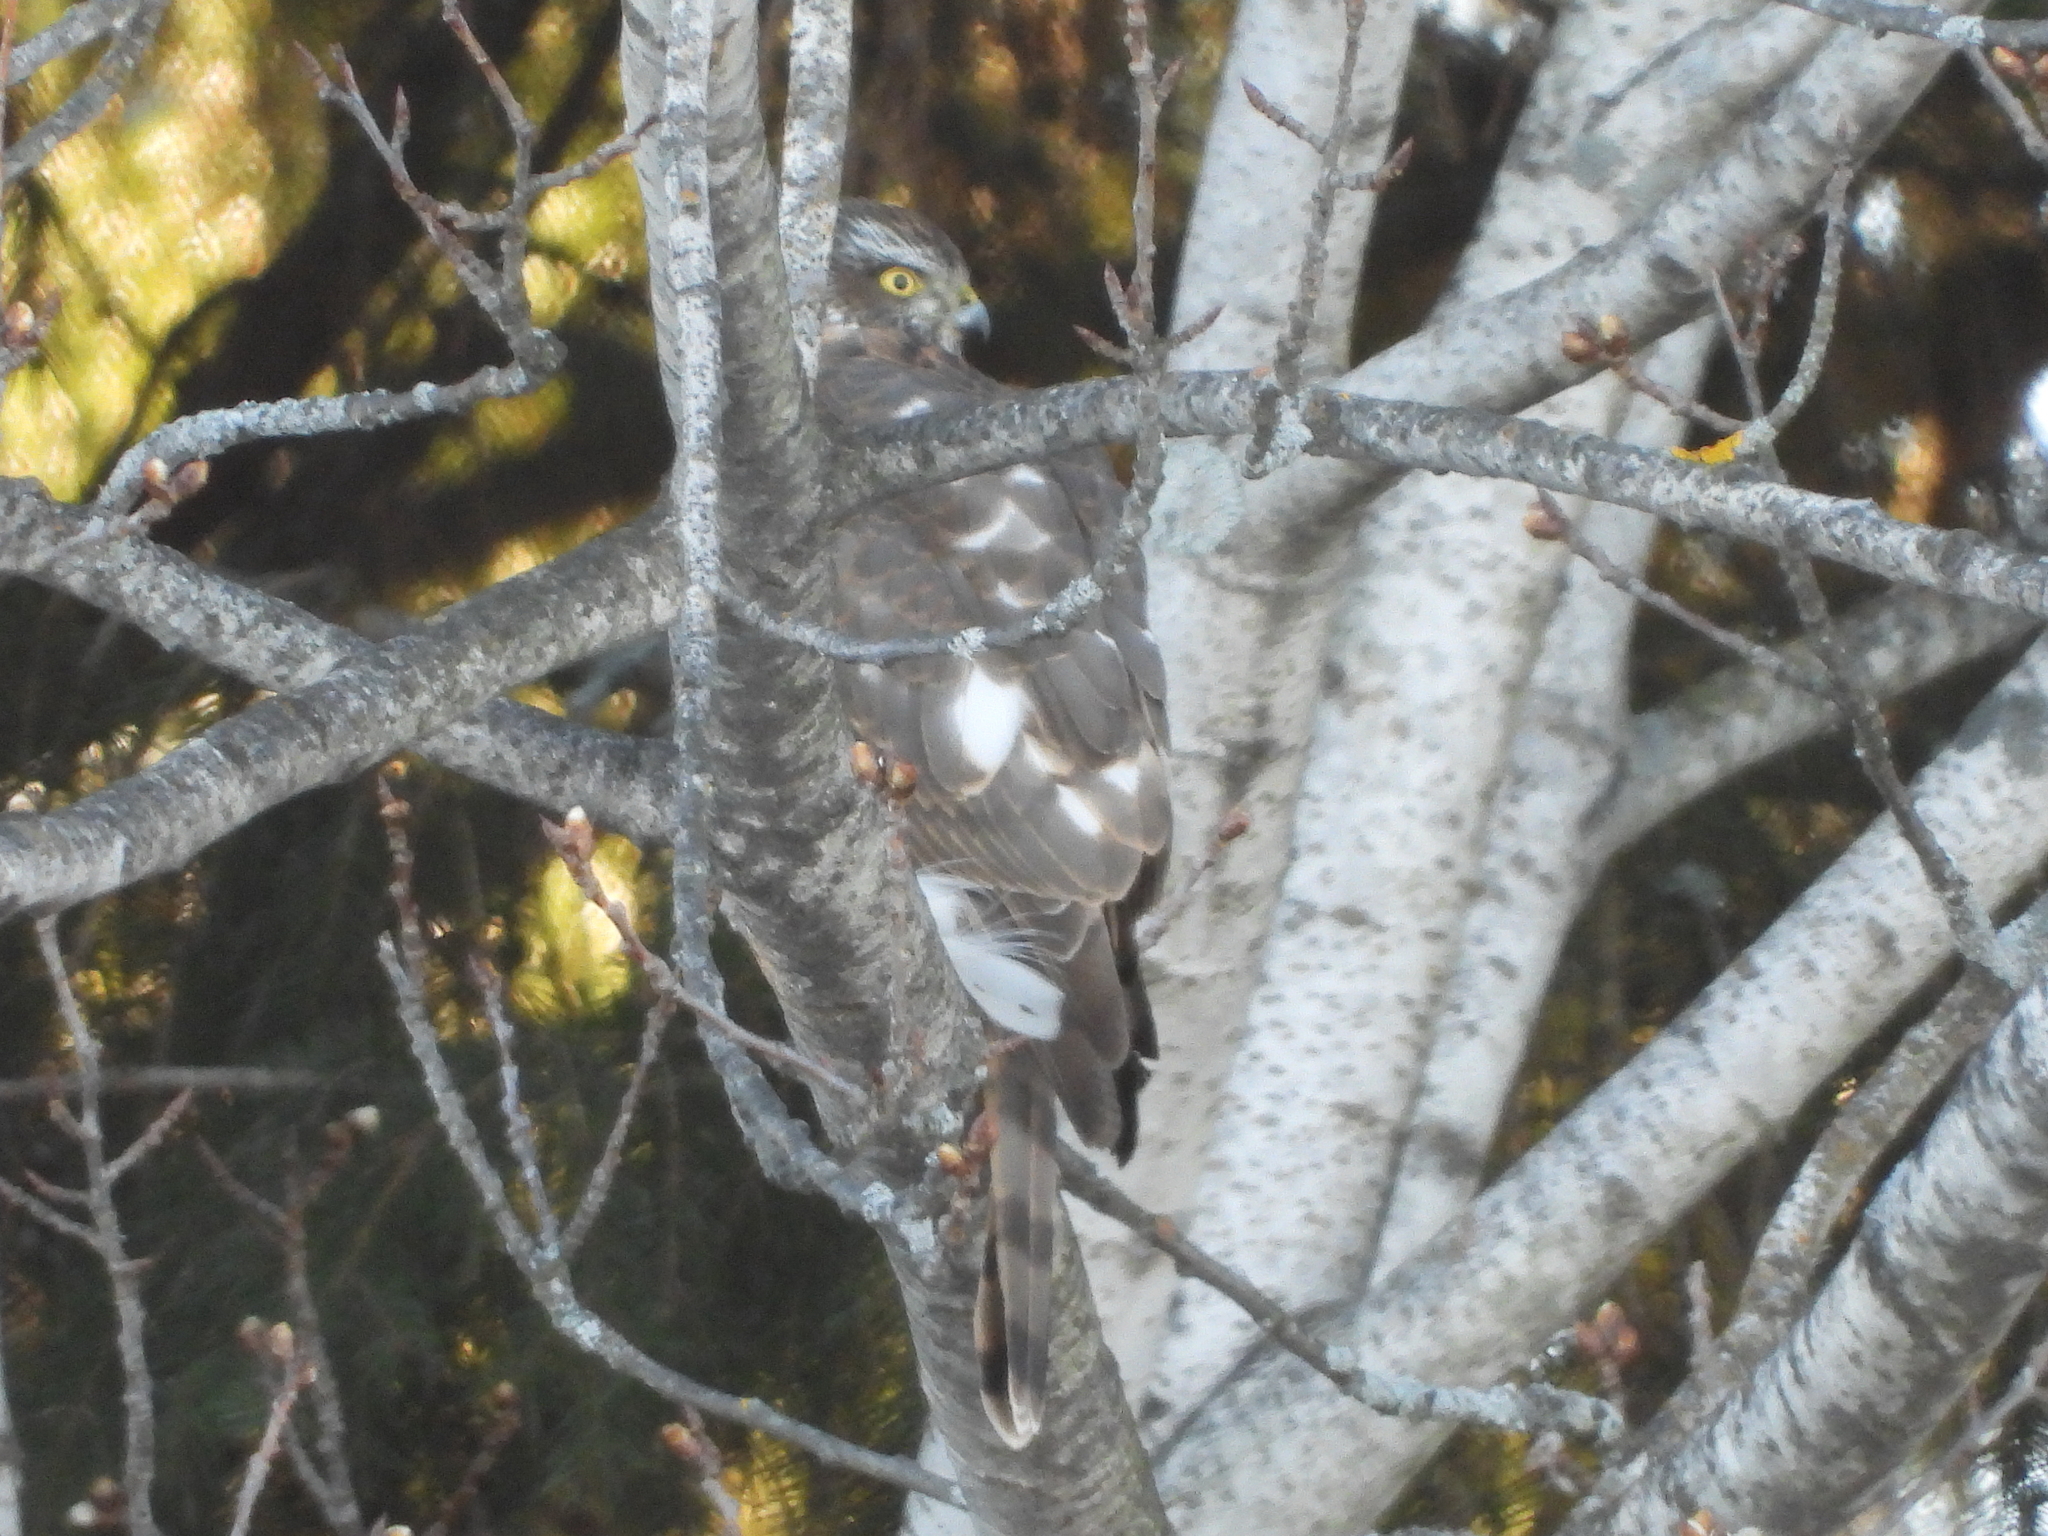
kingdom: Animalia
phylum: Chordata
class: Aves
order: Accipitriformes
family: Accipitridae
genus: Accipiter
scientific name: Accipiter nisus
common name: Eurasian sparrowhawk
